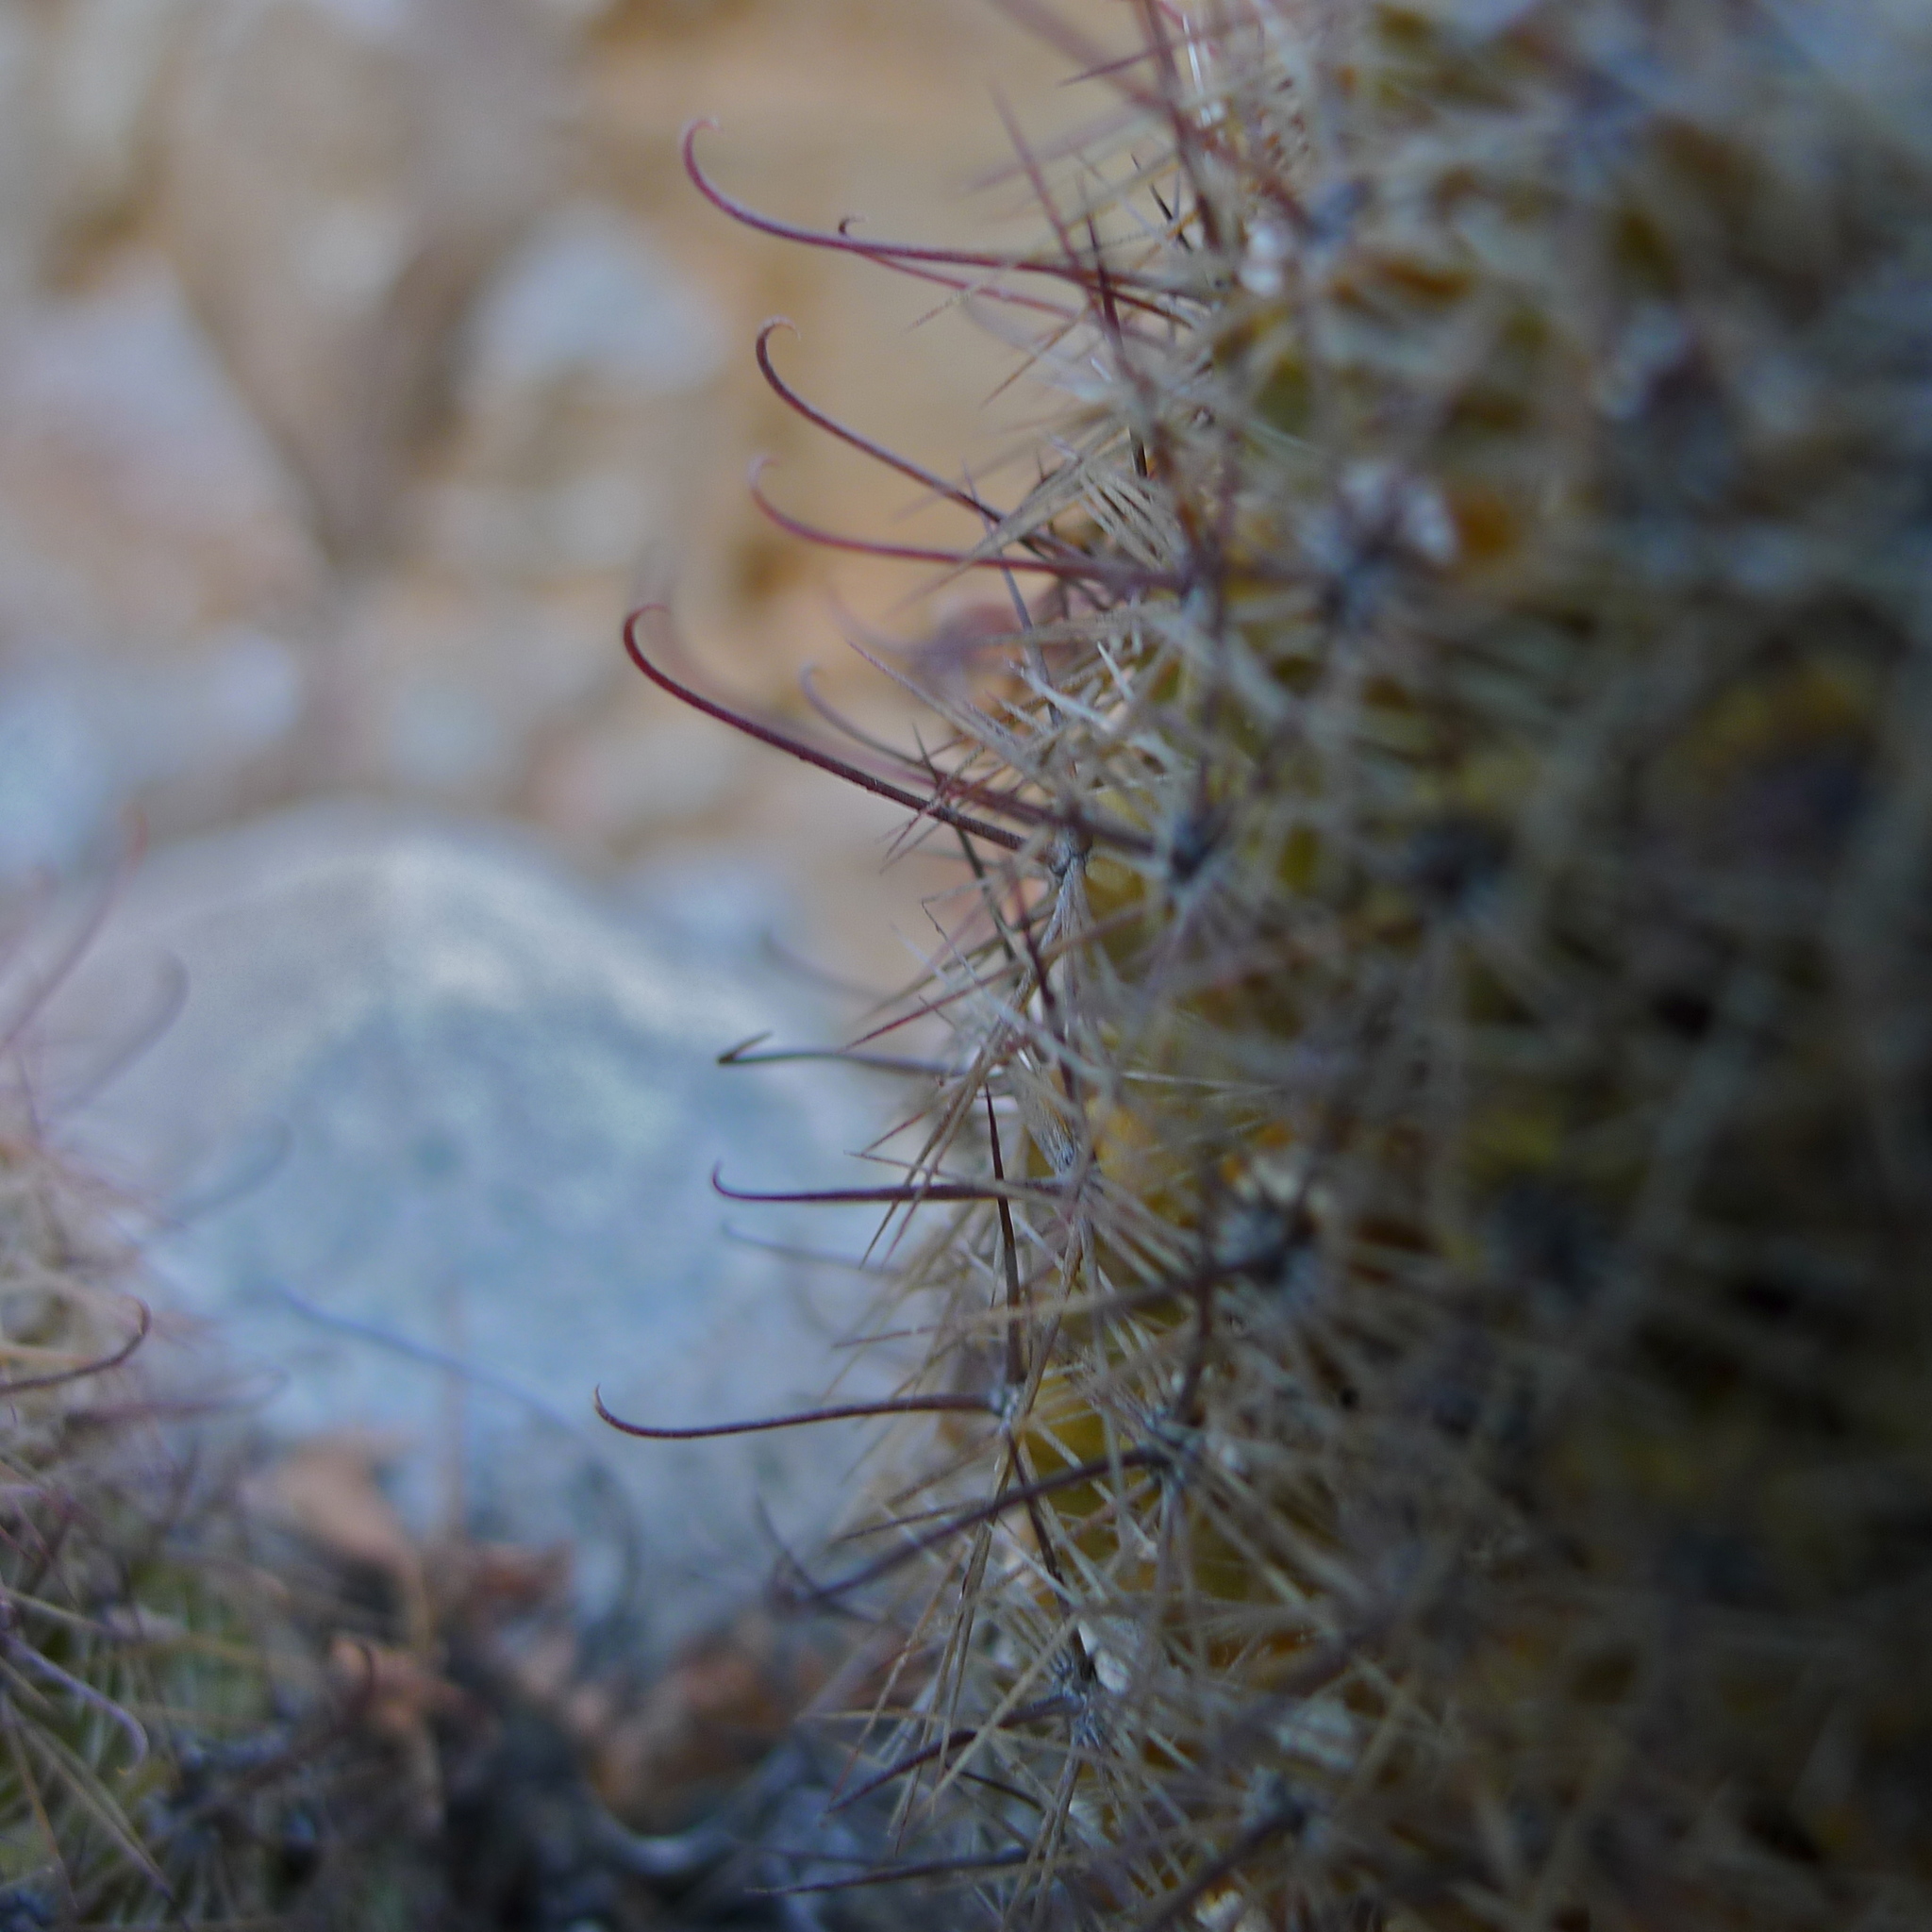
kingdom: Plantae
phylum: Tracheophyta
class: Magnoliopsida
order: Caryophyllales
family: Cactaceae
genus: Cochemiea
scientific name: Cochemiea dioica
